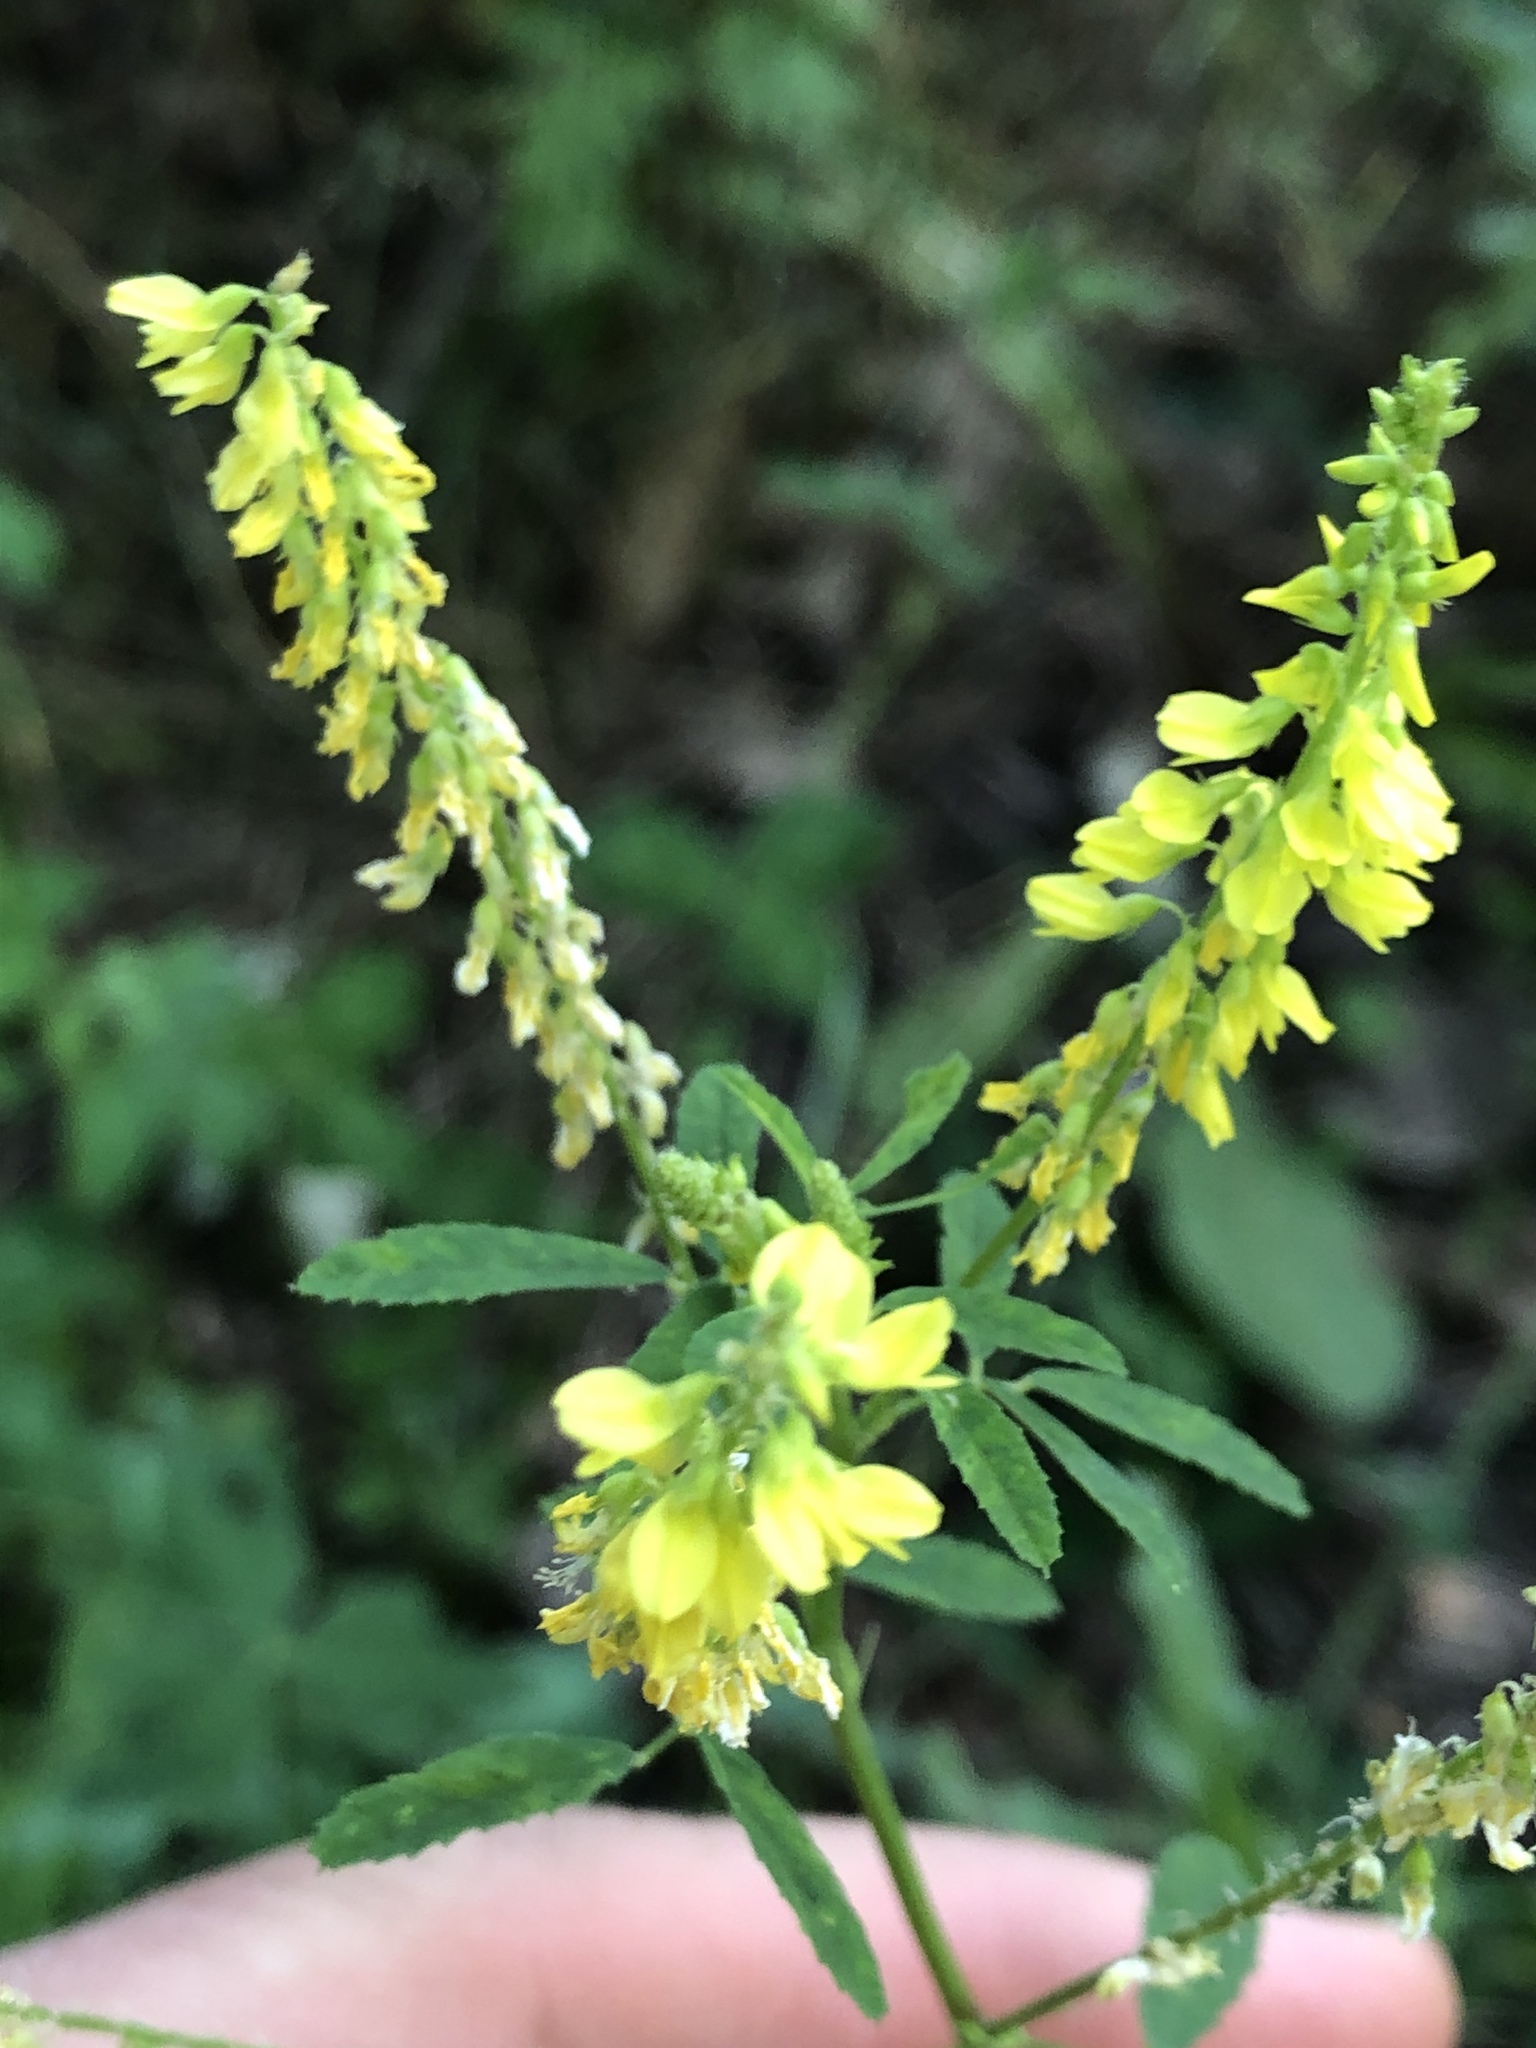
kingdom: Plantae
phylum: Tracheophyta
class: Magnoliopsida
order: Fabales
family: Fabaceae
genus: Melilotus
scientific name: Melilotus officinalis
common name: Sweetclover
